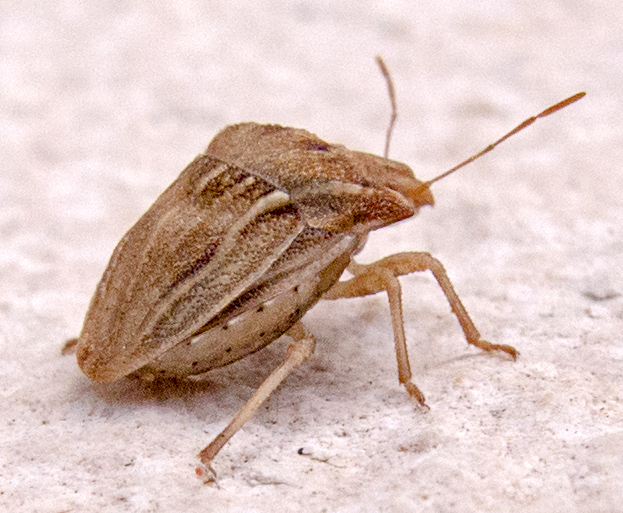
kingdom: Animalia
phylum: Arthropoda
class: Insecta
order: Hemiptera
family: Pentatomidae
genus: Ancyrosoma
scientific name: Ancyrosoma leucogrammes
